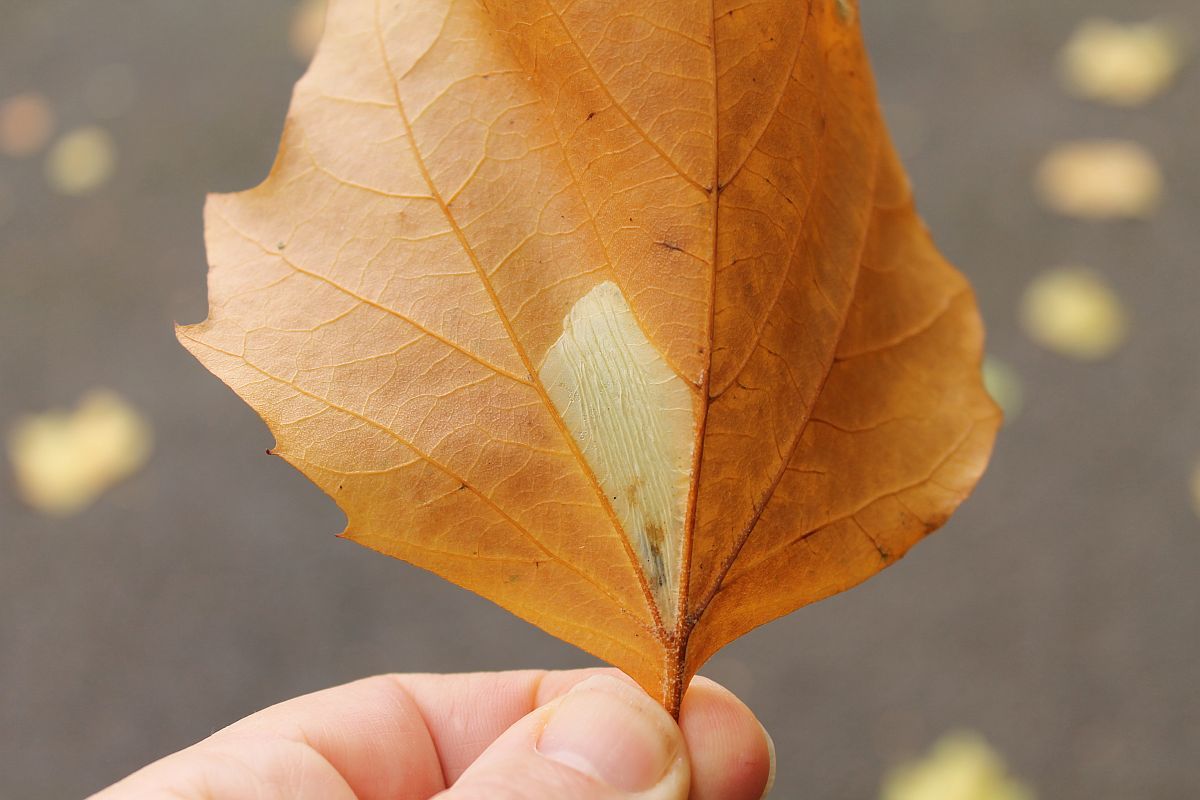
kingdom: Animalia
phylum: Arthropoda
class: Insecta
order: Lepidoptera
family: Gracillariidae
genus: Phyllonorycter
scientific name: Phyllonorycter platani
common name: London midget
